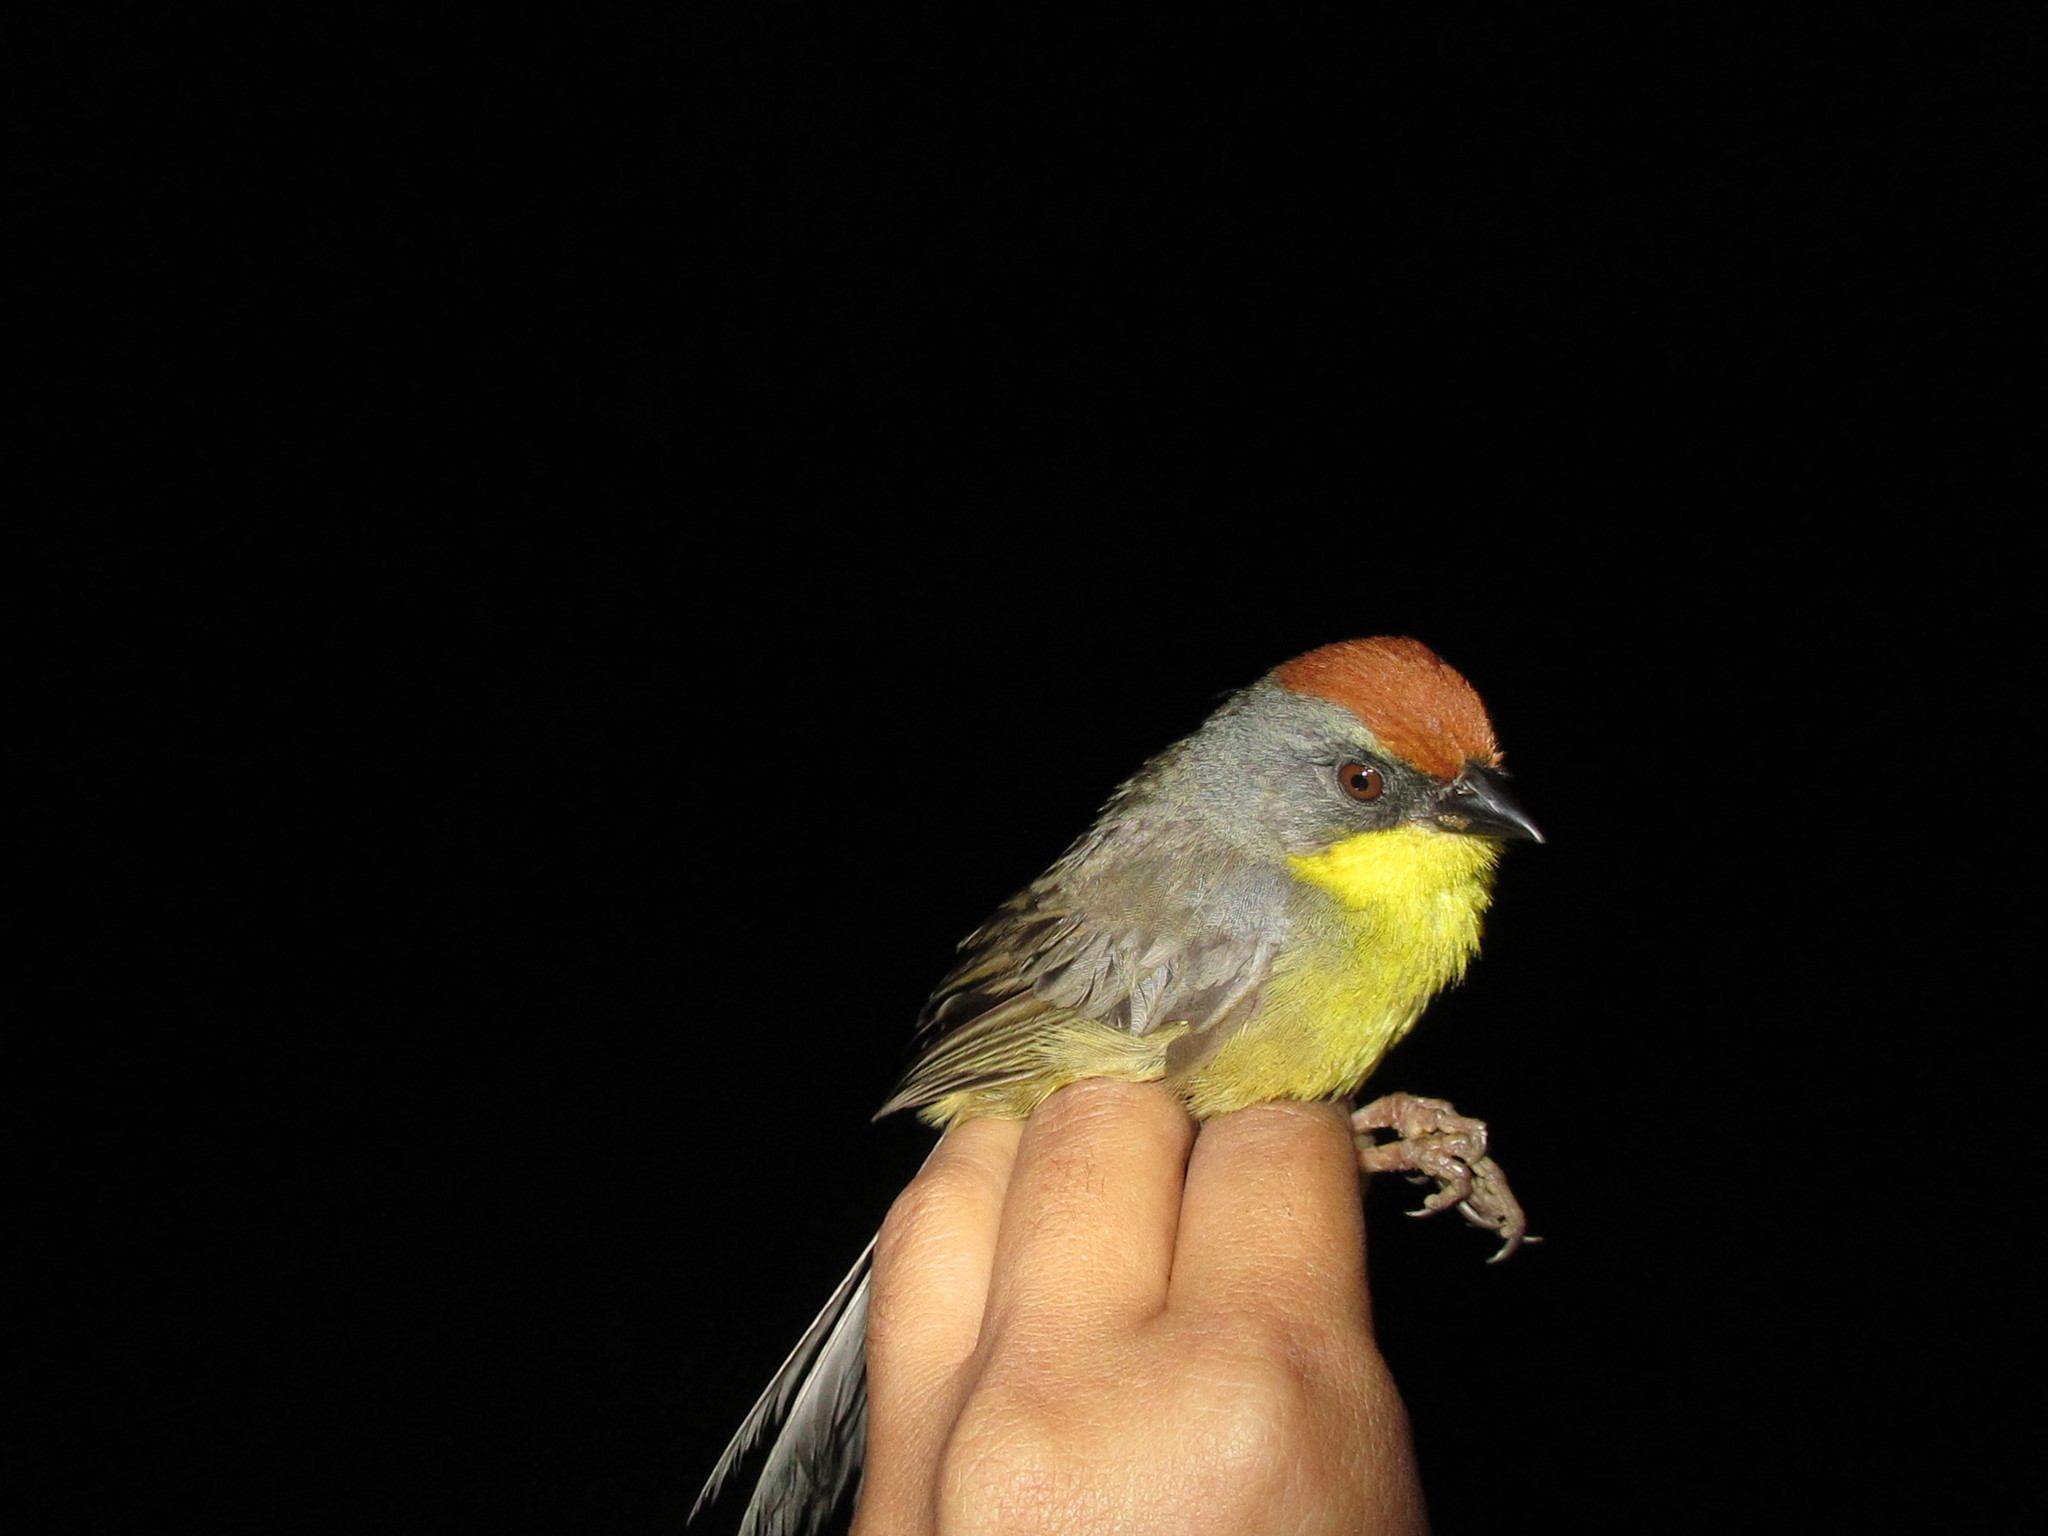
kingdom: Animalia
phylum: Chordata
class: Aves
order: Passeriformes
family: Passerellidae
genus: Atlapetes
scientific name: Atlapetes pileatus
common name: Rufous-capped brush-finch
